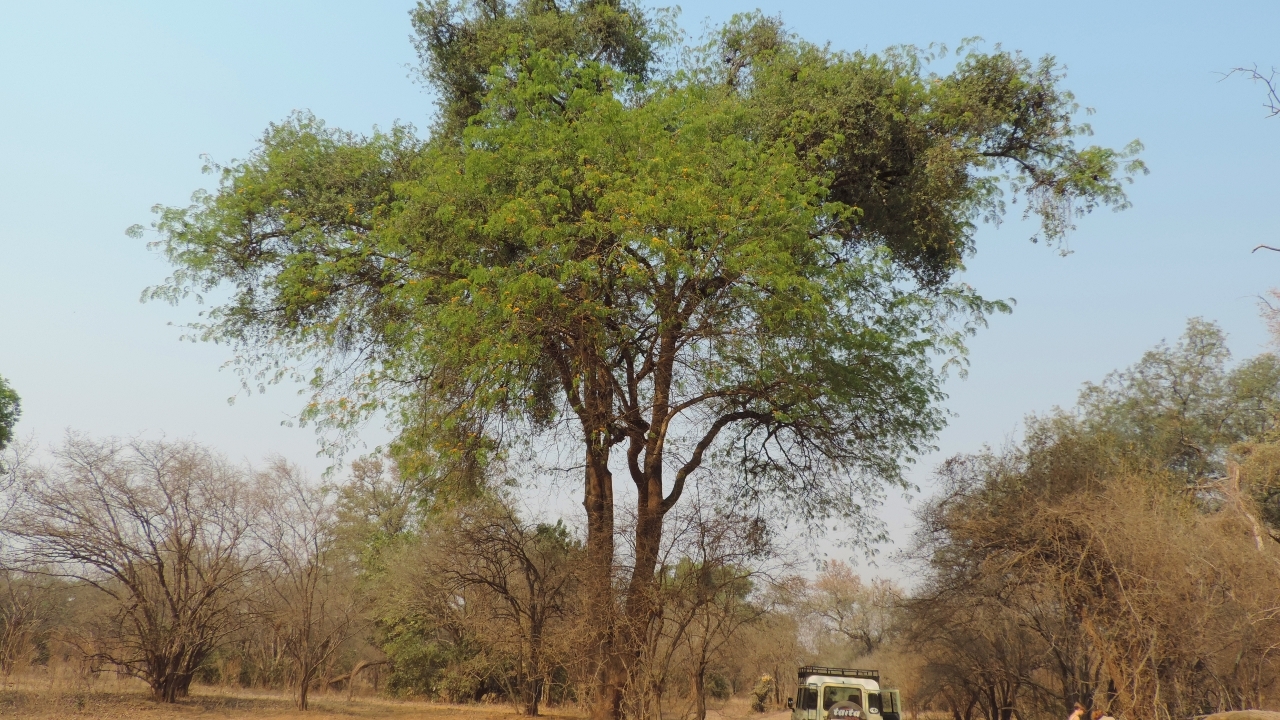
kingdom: Plantae
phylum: Tracheophyta
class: Magnoliopsida
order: Fabales
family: Fabaceae
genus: Cordyla
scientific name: Cordyla africana
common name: Wild mango
